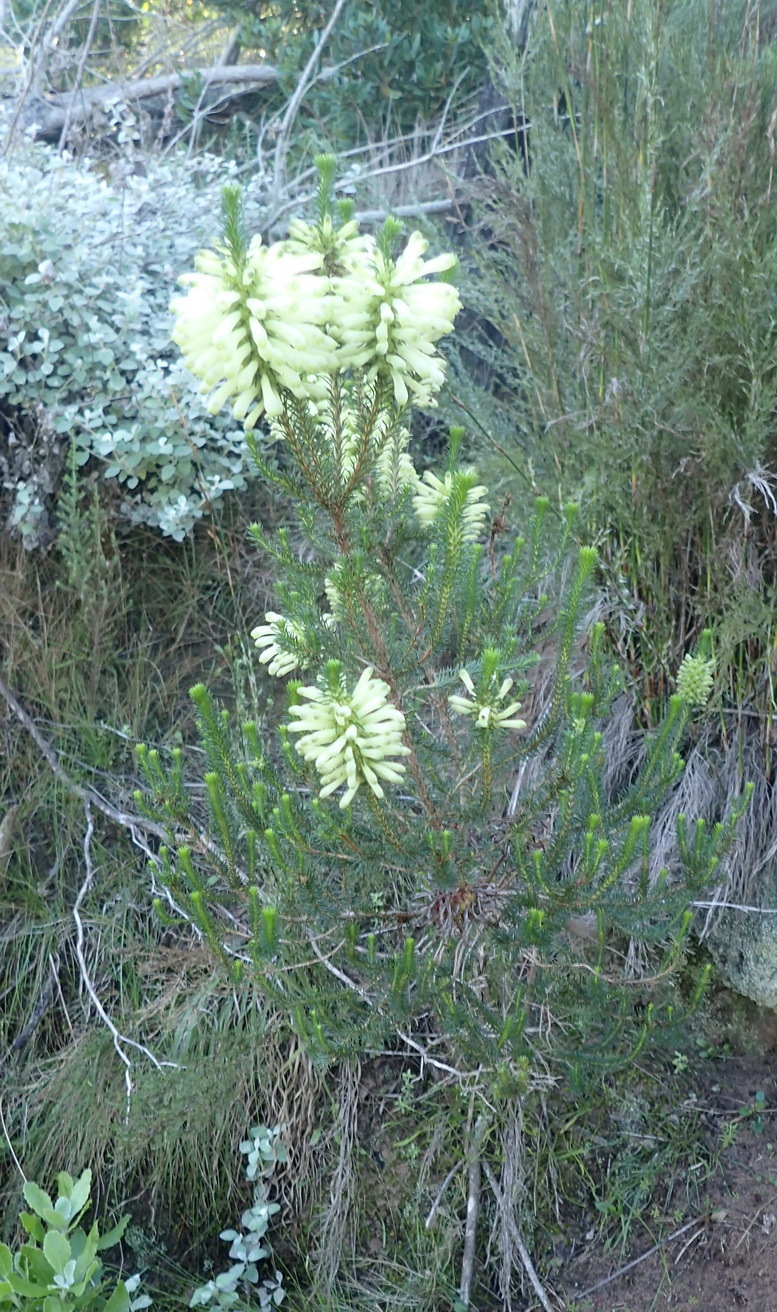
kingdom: Plantae
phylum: Tracheophyta
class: Magnoliopsida
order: Ericales
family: Ericaceae
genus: Erica
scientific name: Erica sessiliflora
